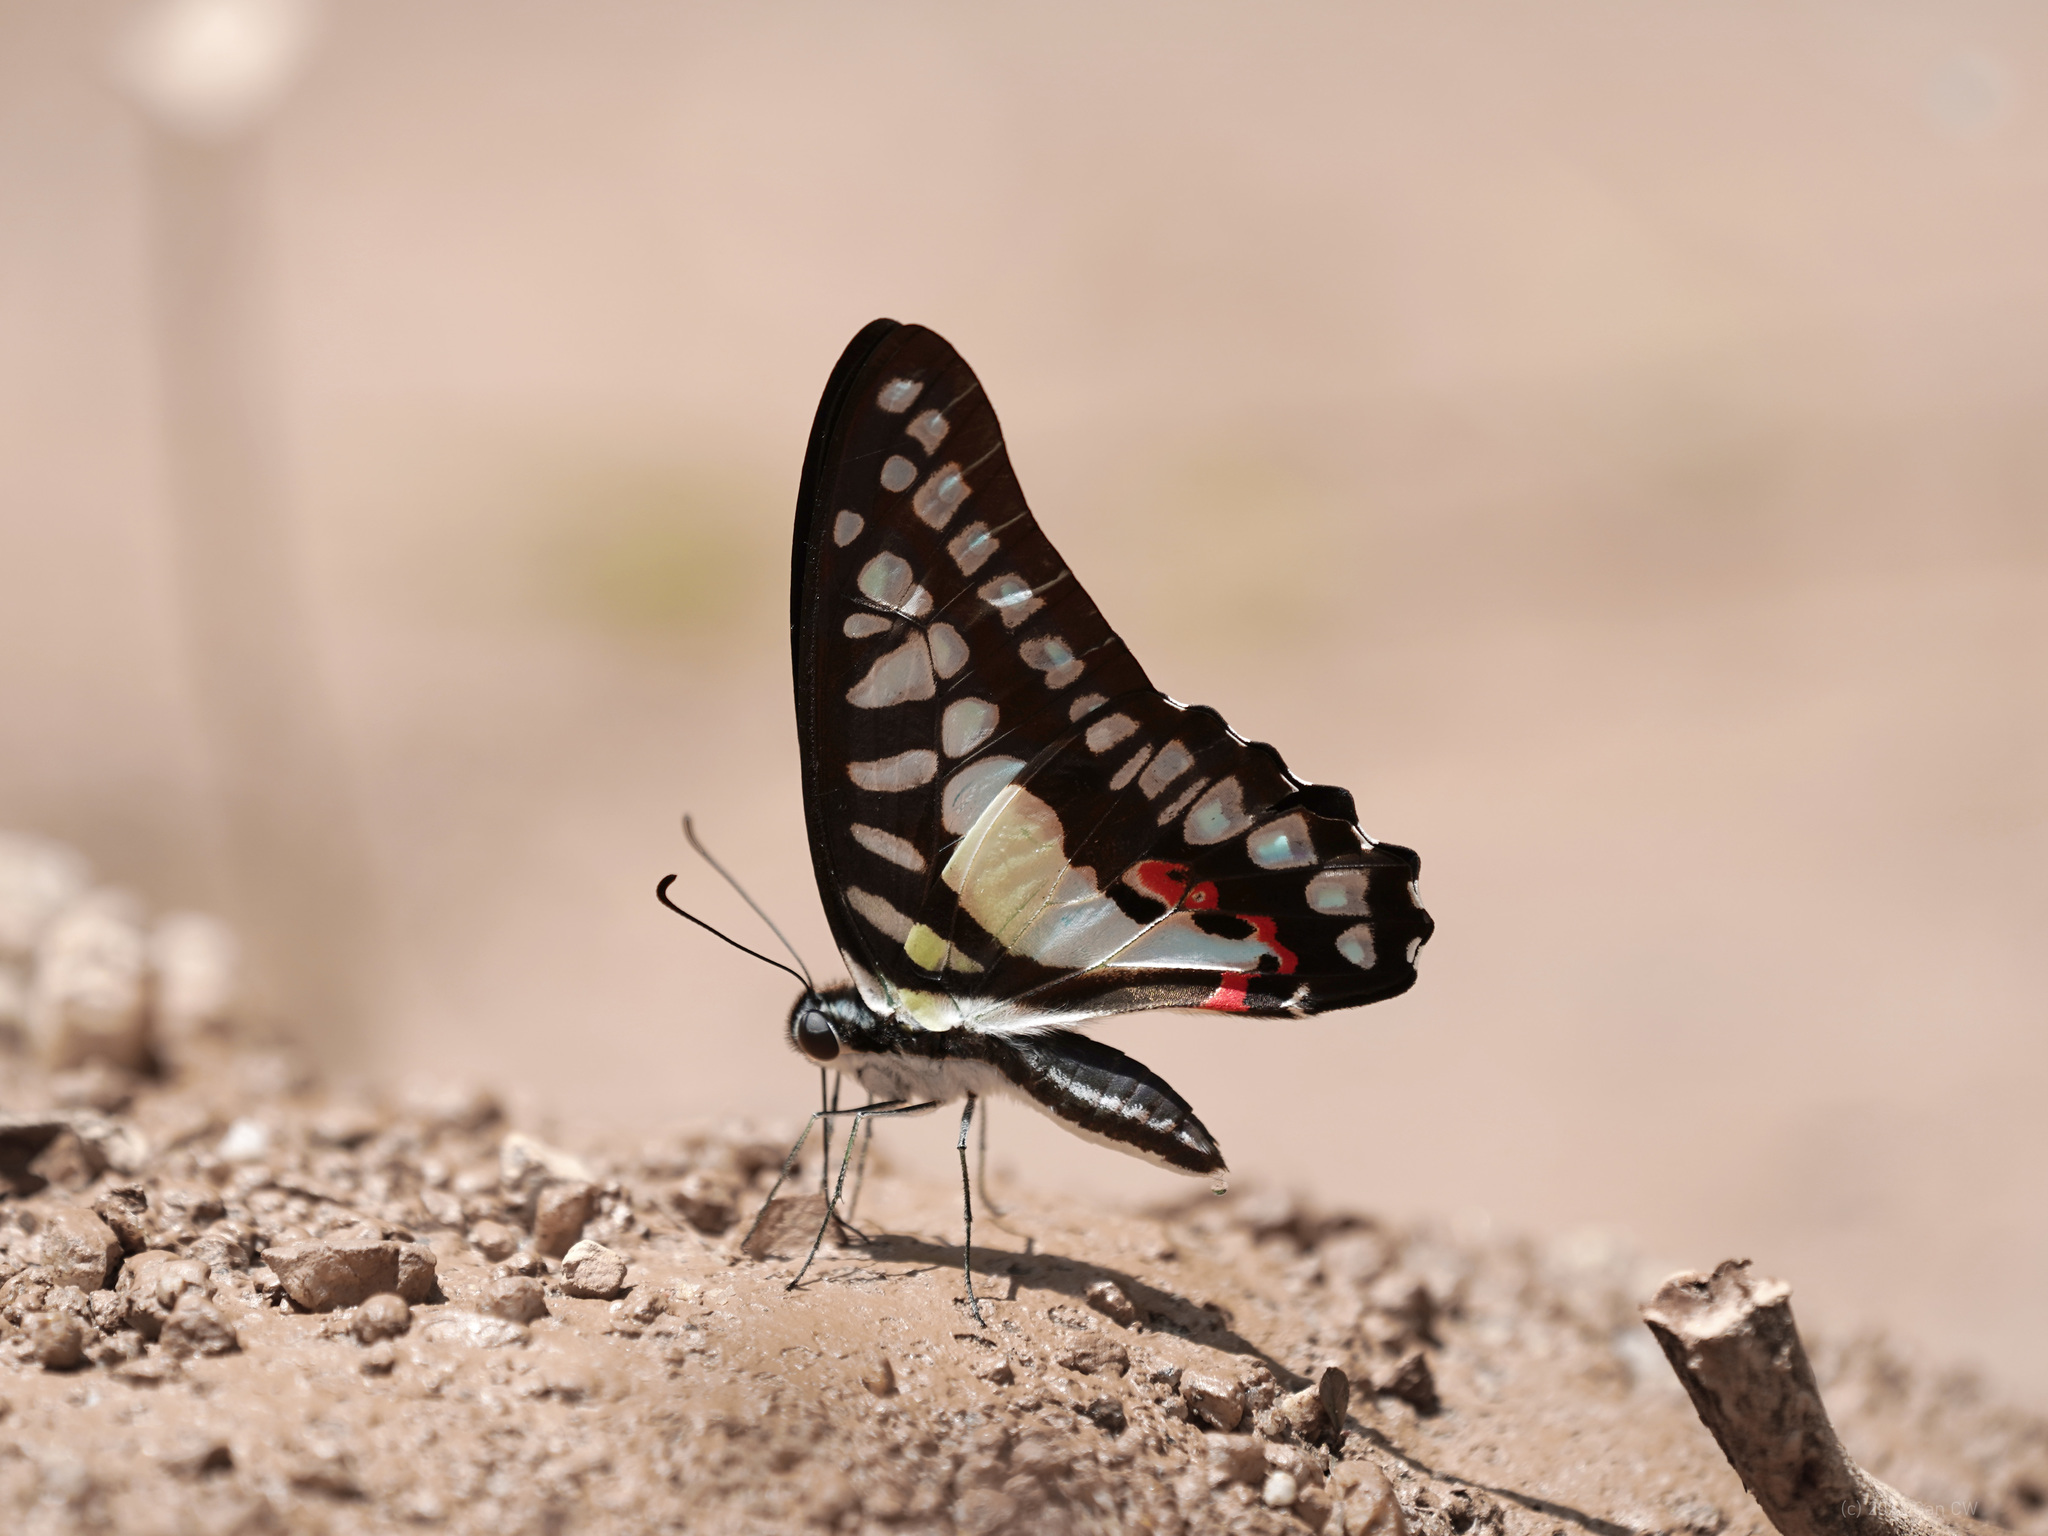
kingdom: Animalia
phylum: Arthropoda
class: Insecta
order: Lepidoptera
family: Papilionidae
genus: Graphium
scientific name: Graphium evemon
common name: Lesser jay
